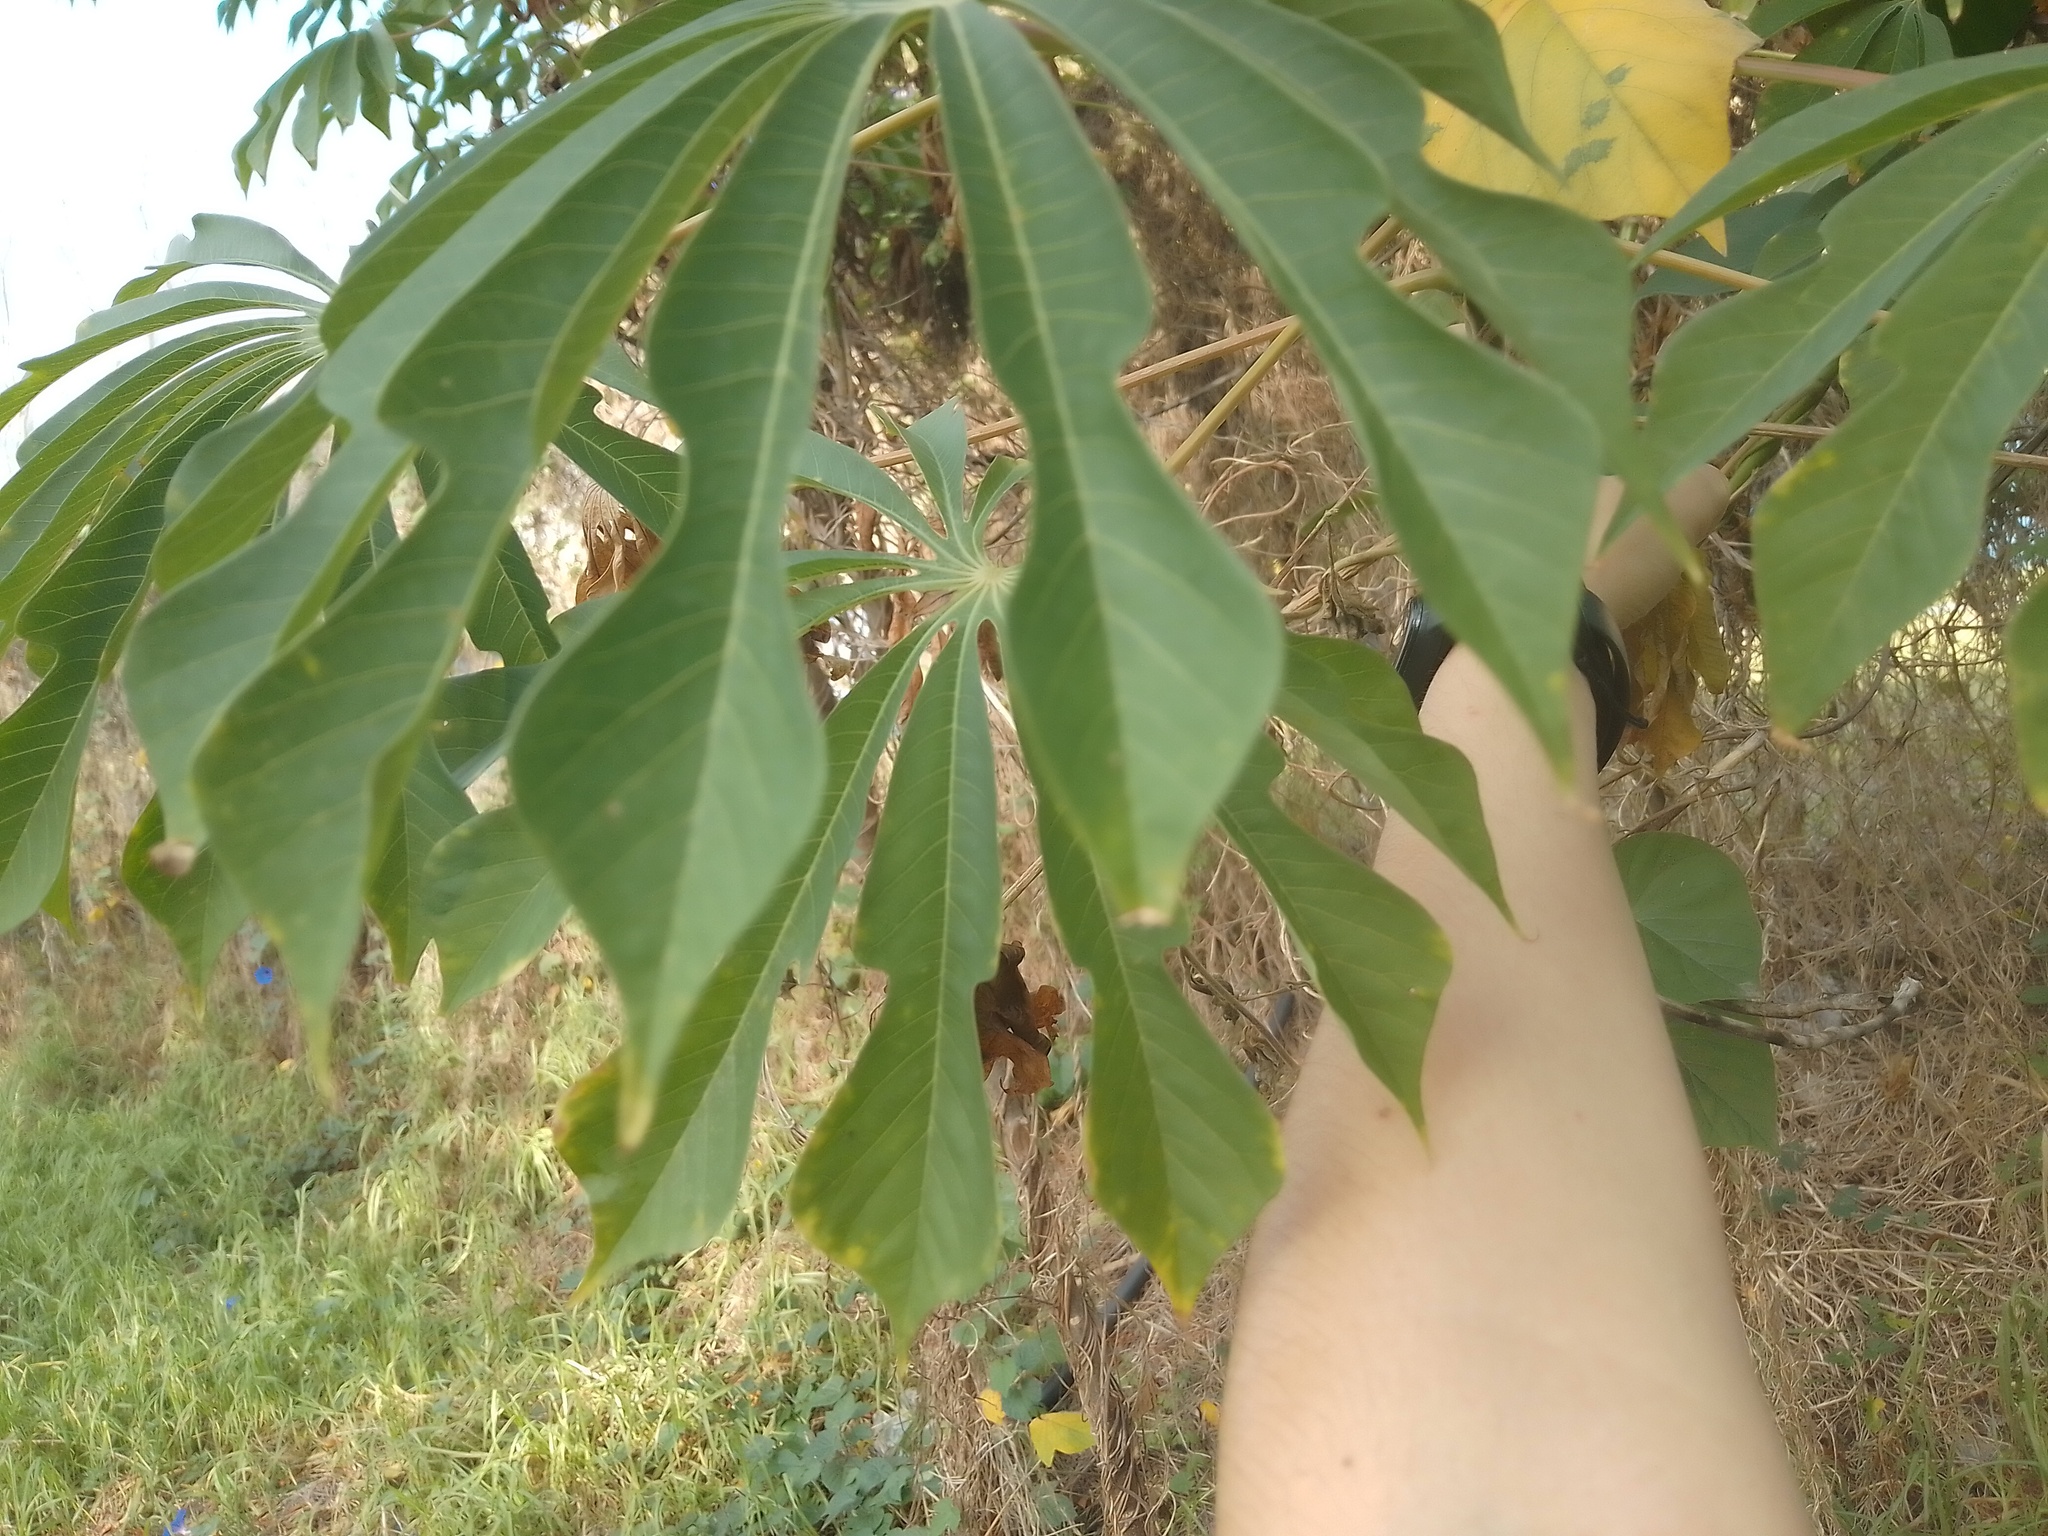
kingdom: Plantae
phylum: Tracheophyta
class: Magnoliopsida
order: Malpighiales
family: Euphorbiaceae
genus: Manihot
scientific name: Manihot grahamii
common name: Graham's manihot
